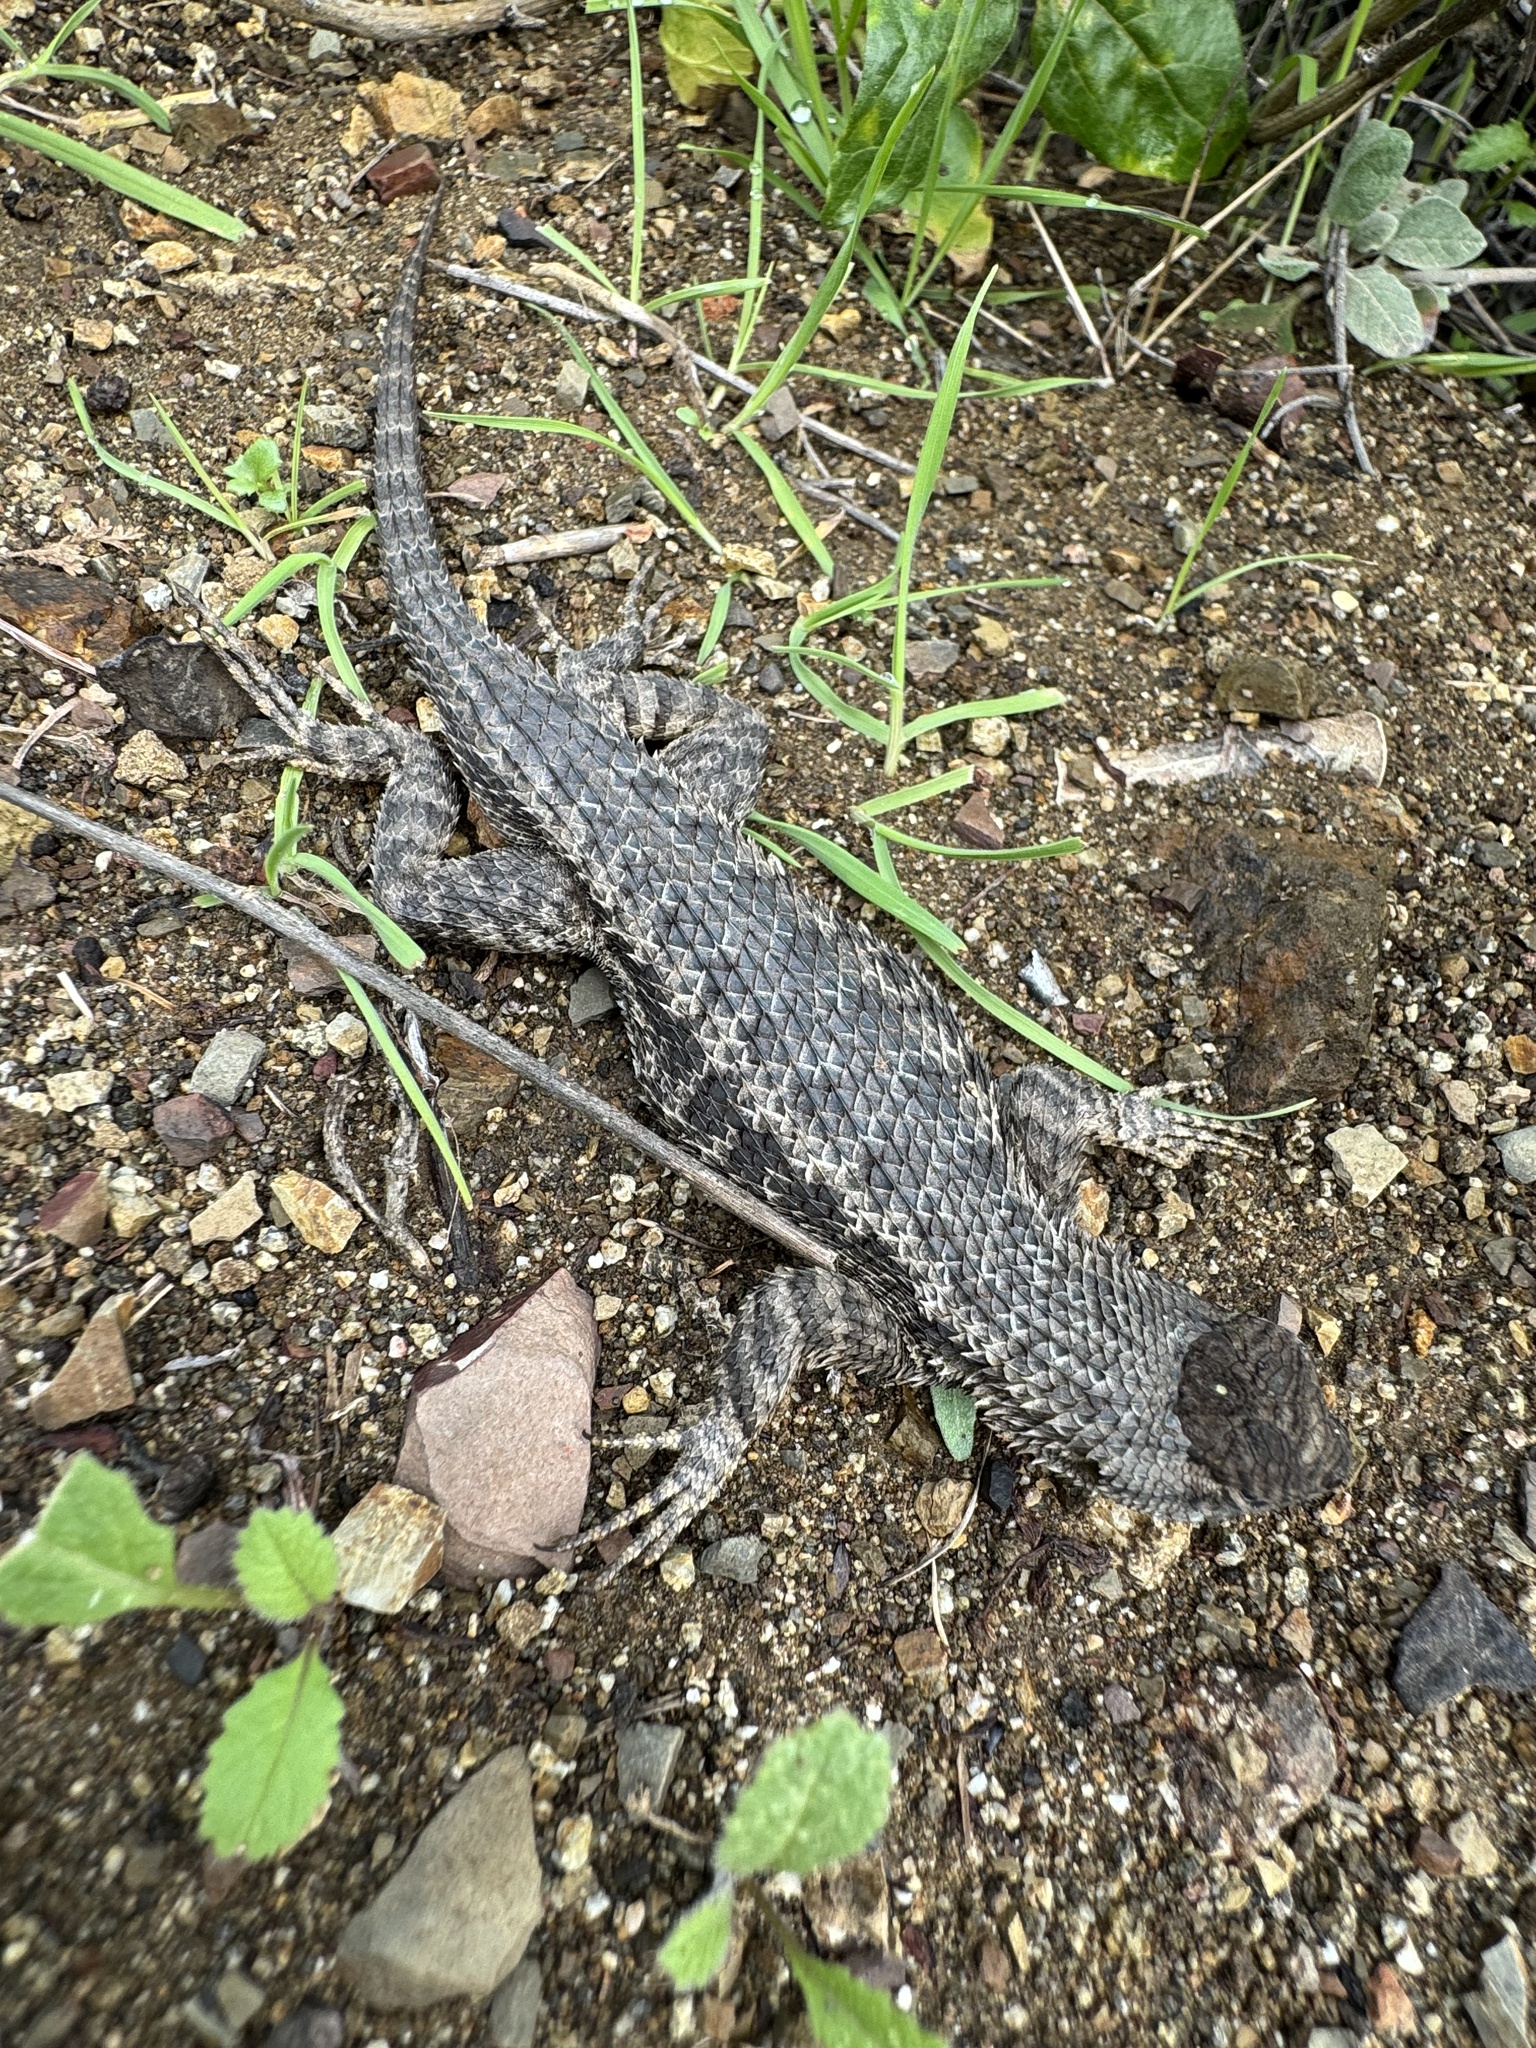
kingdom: Animalia
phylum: Chordata
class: Squamata
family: Phrynosomatidae
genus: Sceloporus
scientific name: Sceloporus occidentalis
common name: Western fence lizard
